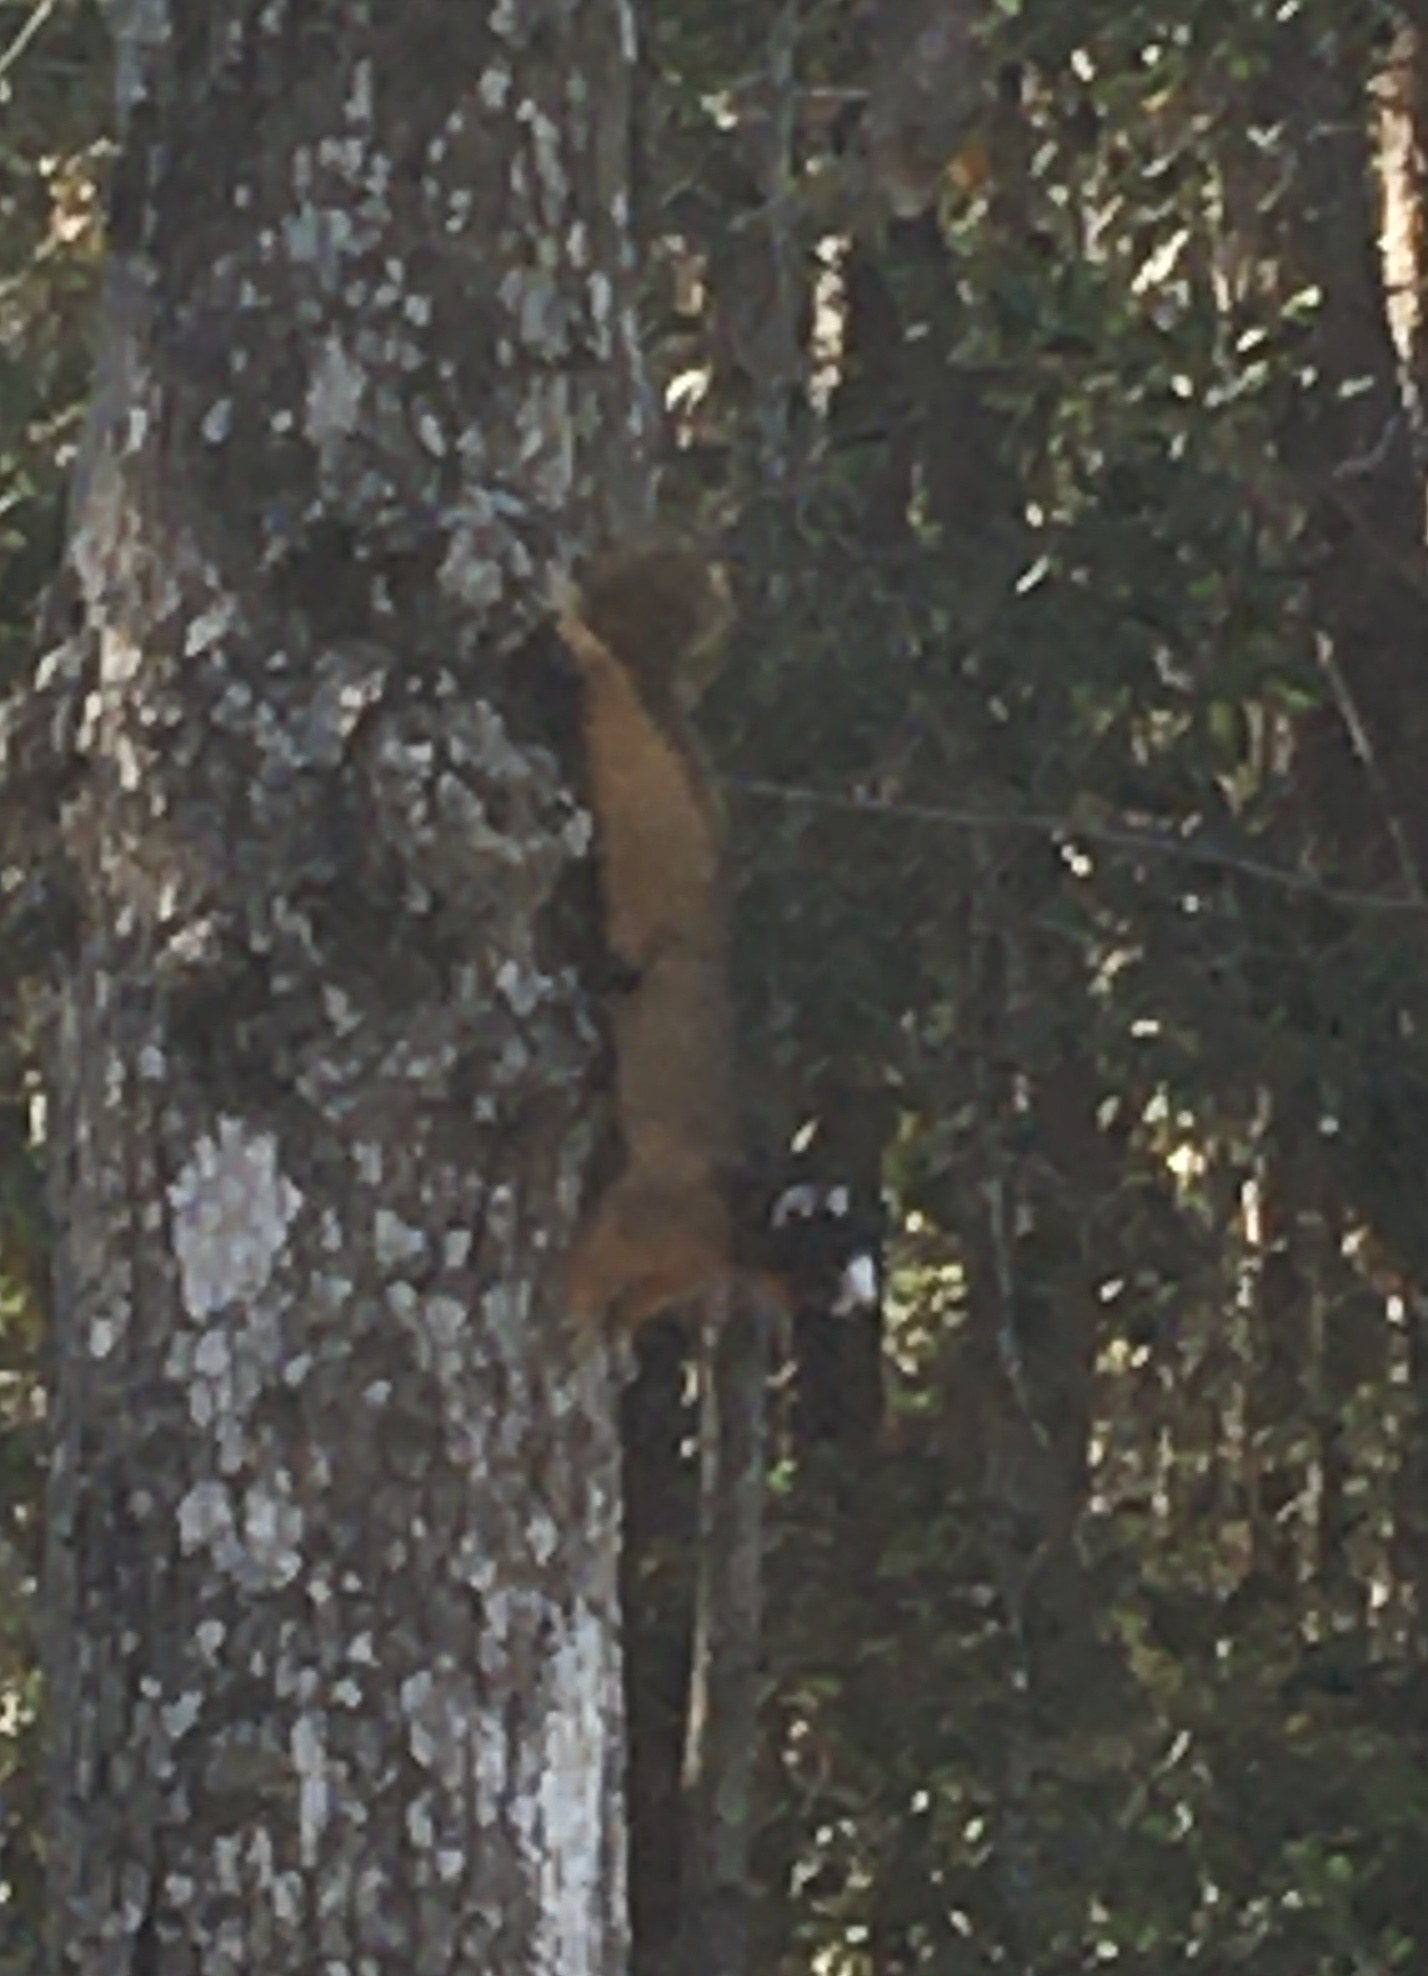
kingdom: Animalia
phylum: Chordata
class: Mammalia
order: Rodentia
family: Sciuridae
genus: Sciurus
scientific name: Sciurus niger
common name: Fox squirrel
